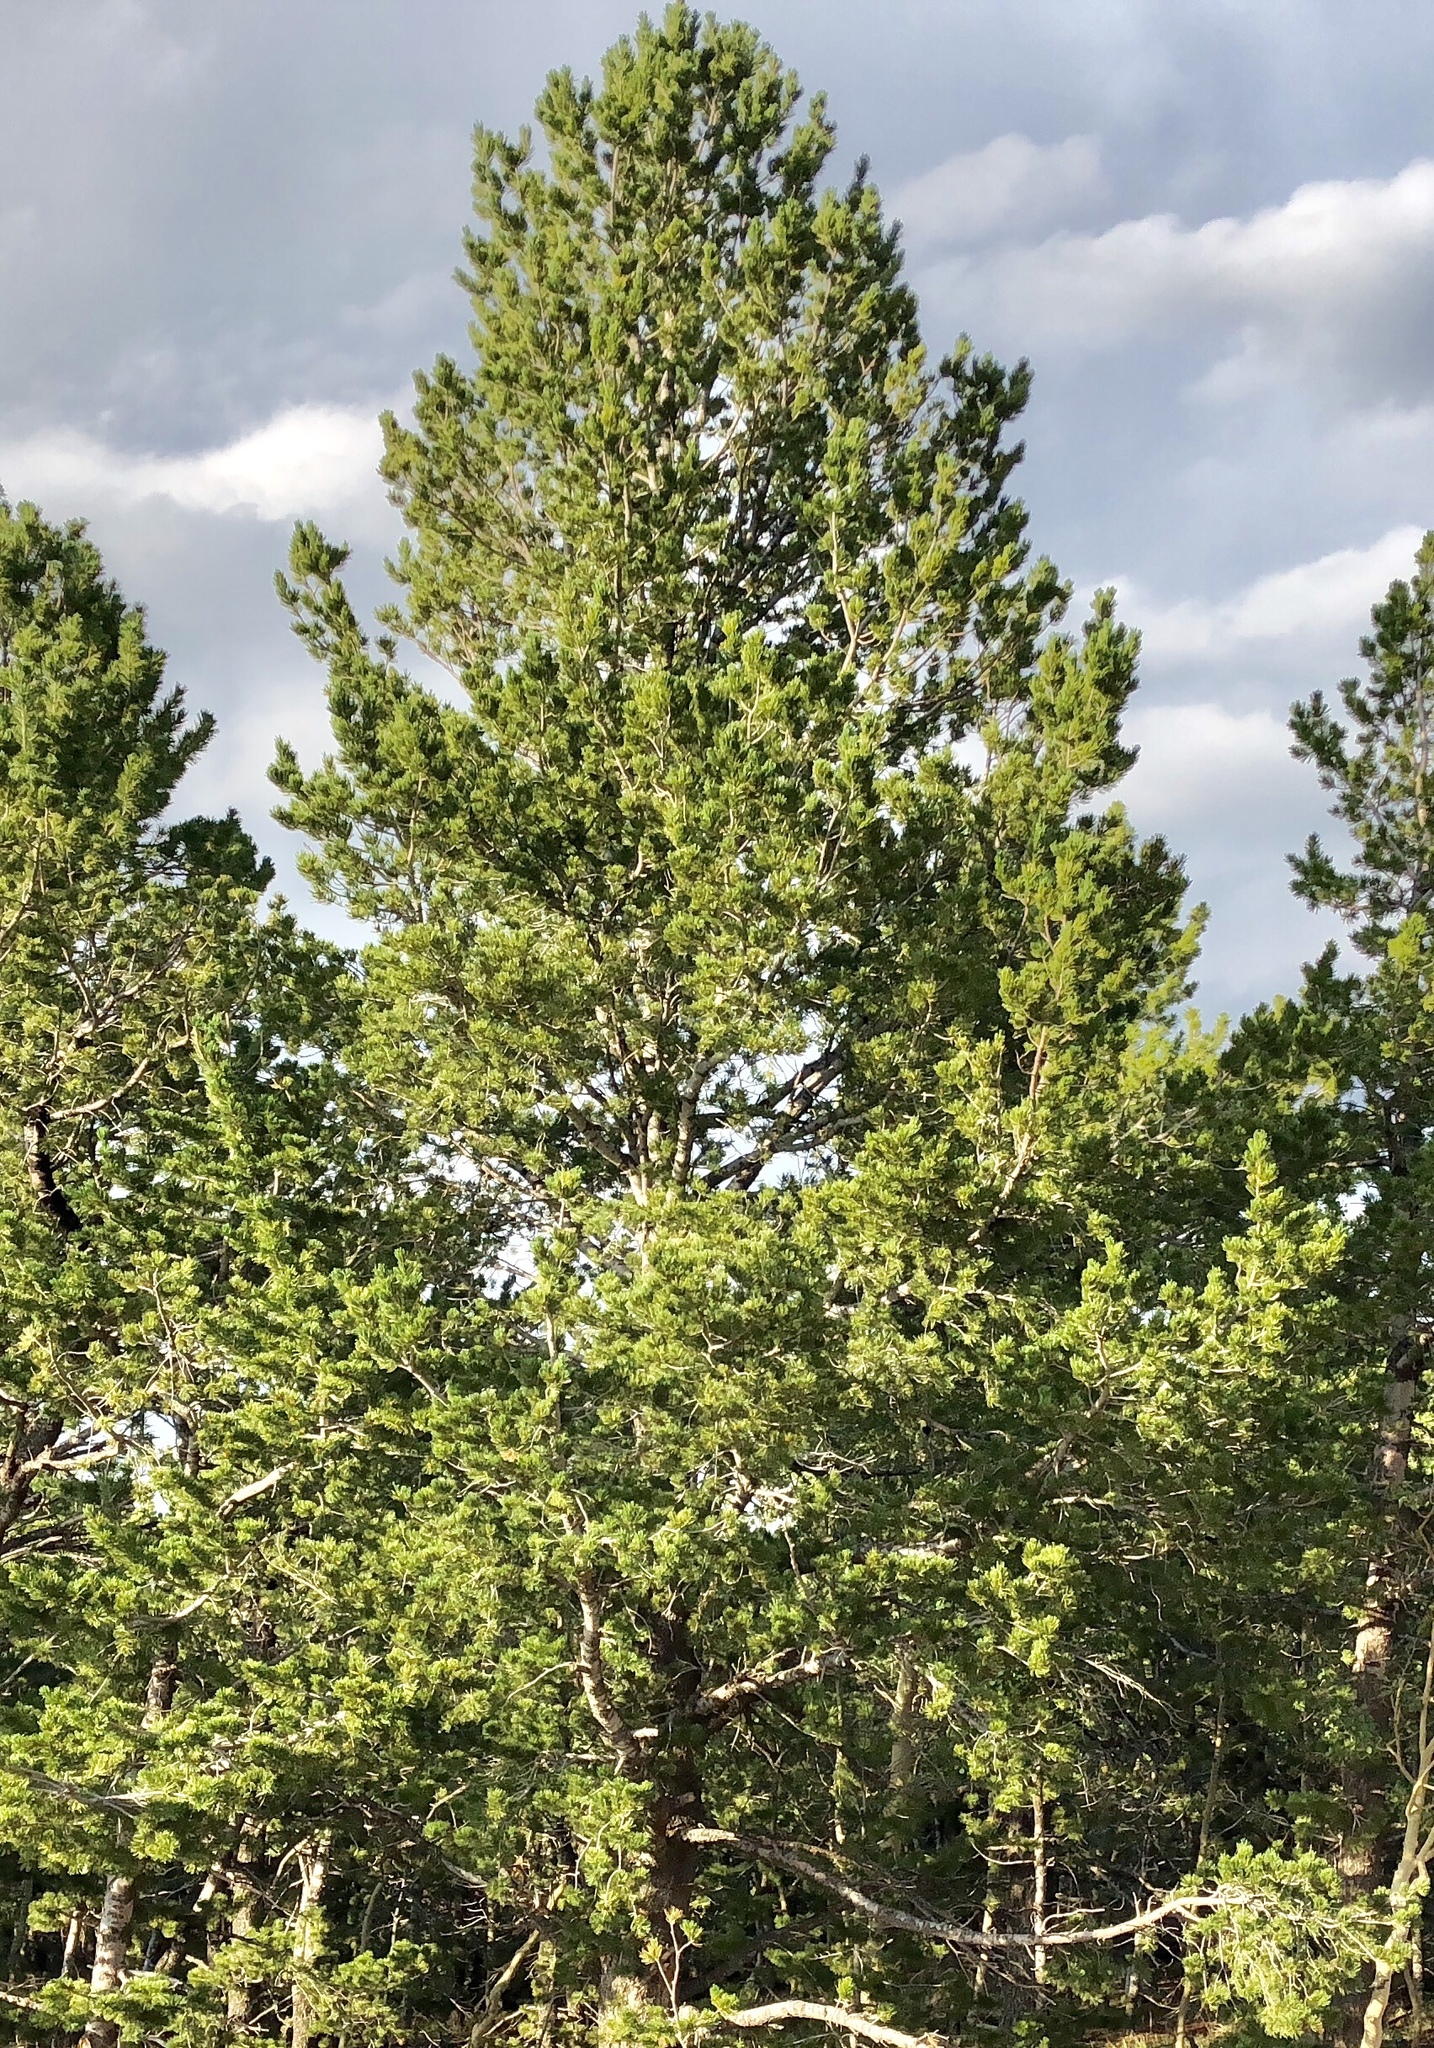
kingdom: Plantae
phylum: Tracheophyta
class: Pinopsida
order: Pinales
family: Pinaceae
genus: Pinus
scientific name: Pinus flexilis
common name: Limber pine
